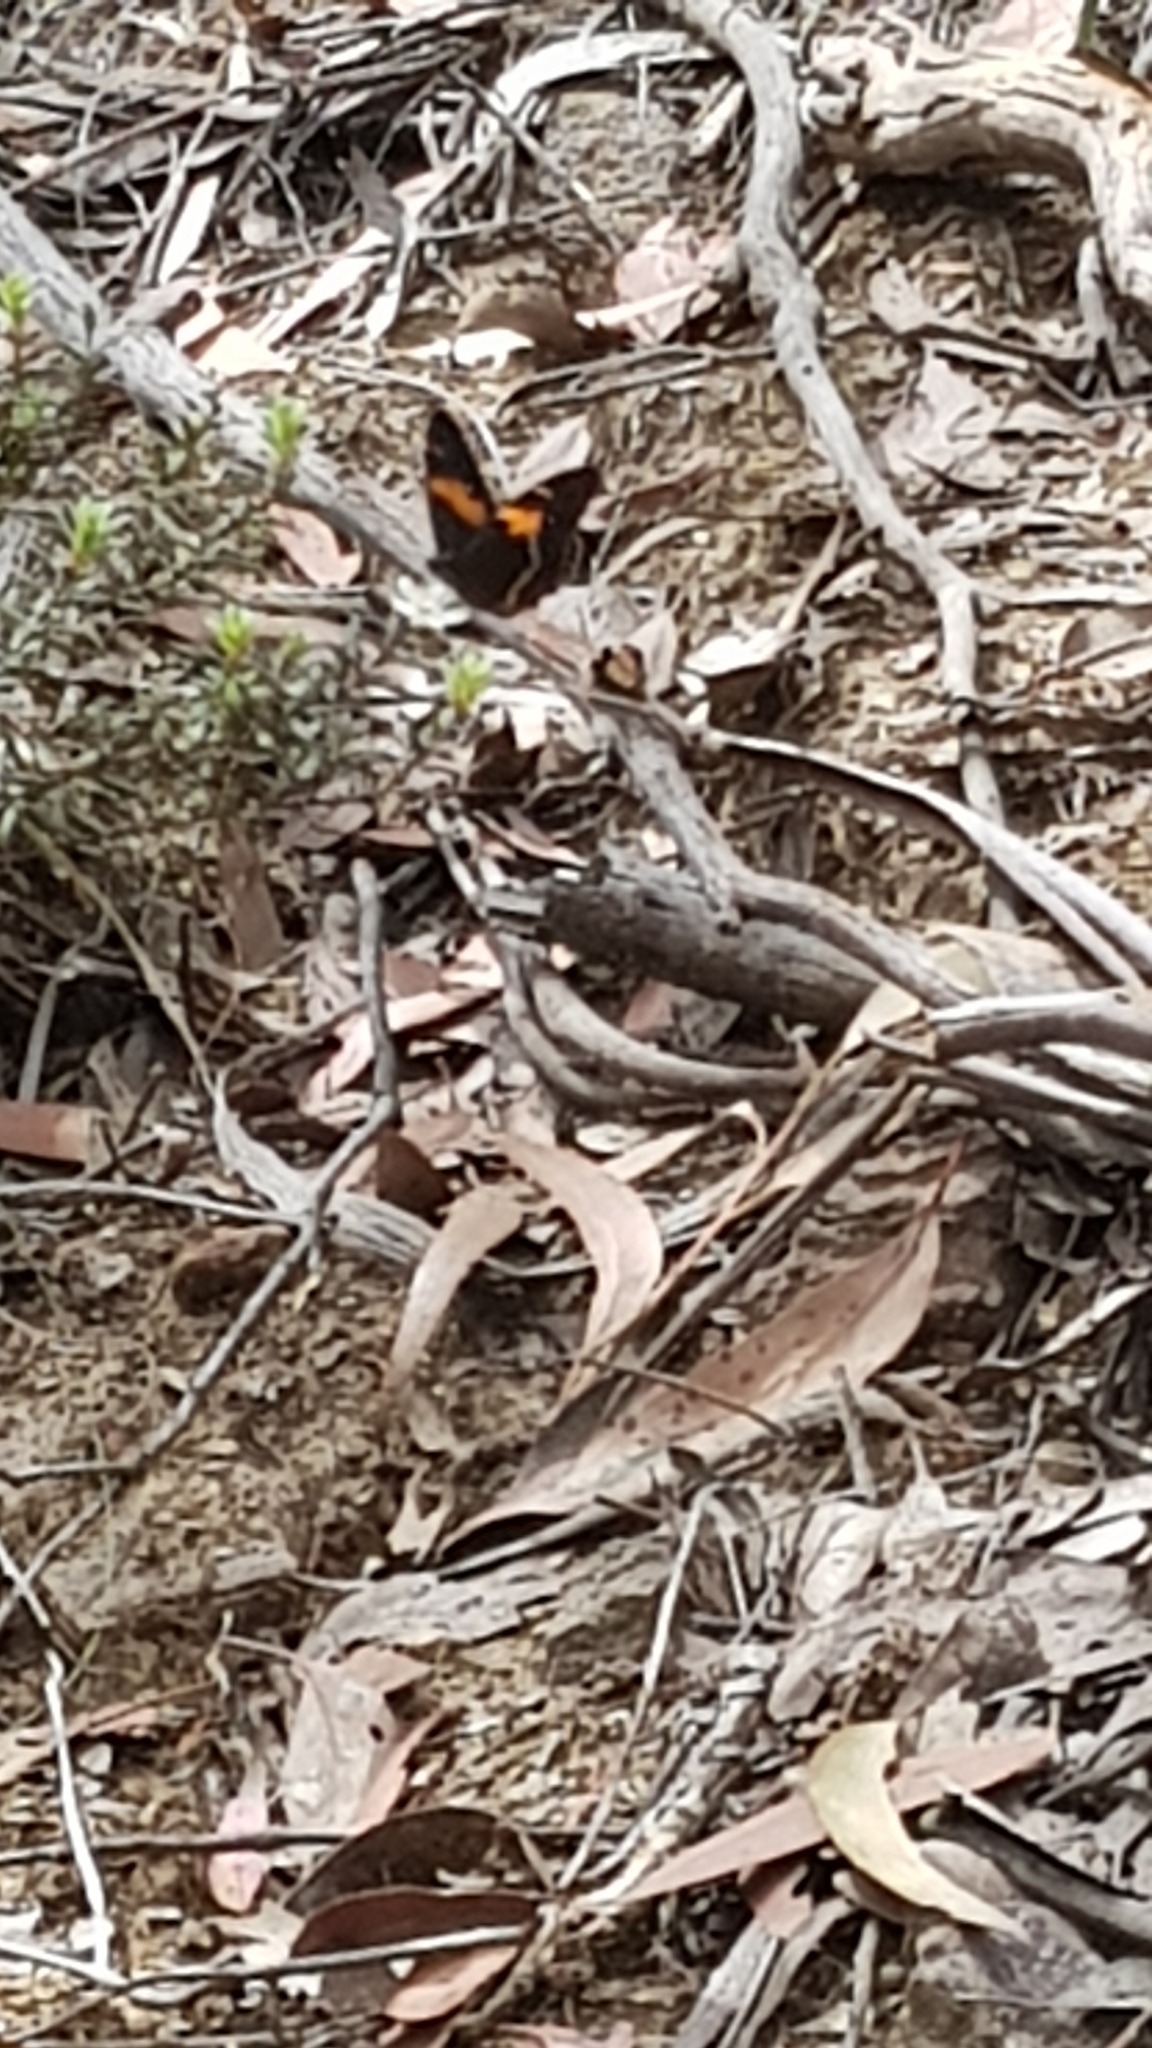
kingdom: Animalia
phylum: Arthropoda
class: Insecta
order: Lepidoptera
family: Nymphalidae
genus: Tisiphone
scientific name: Tisiphone abeona
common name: Swordgrass brown
